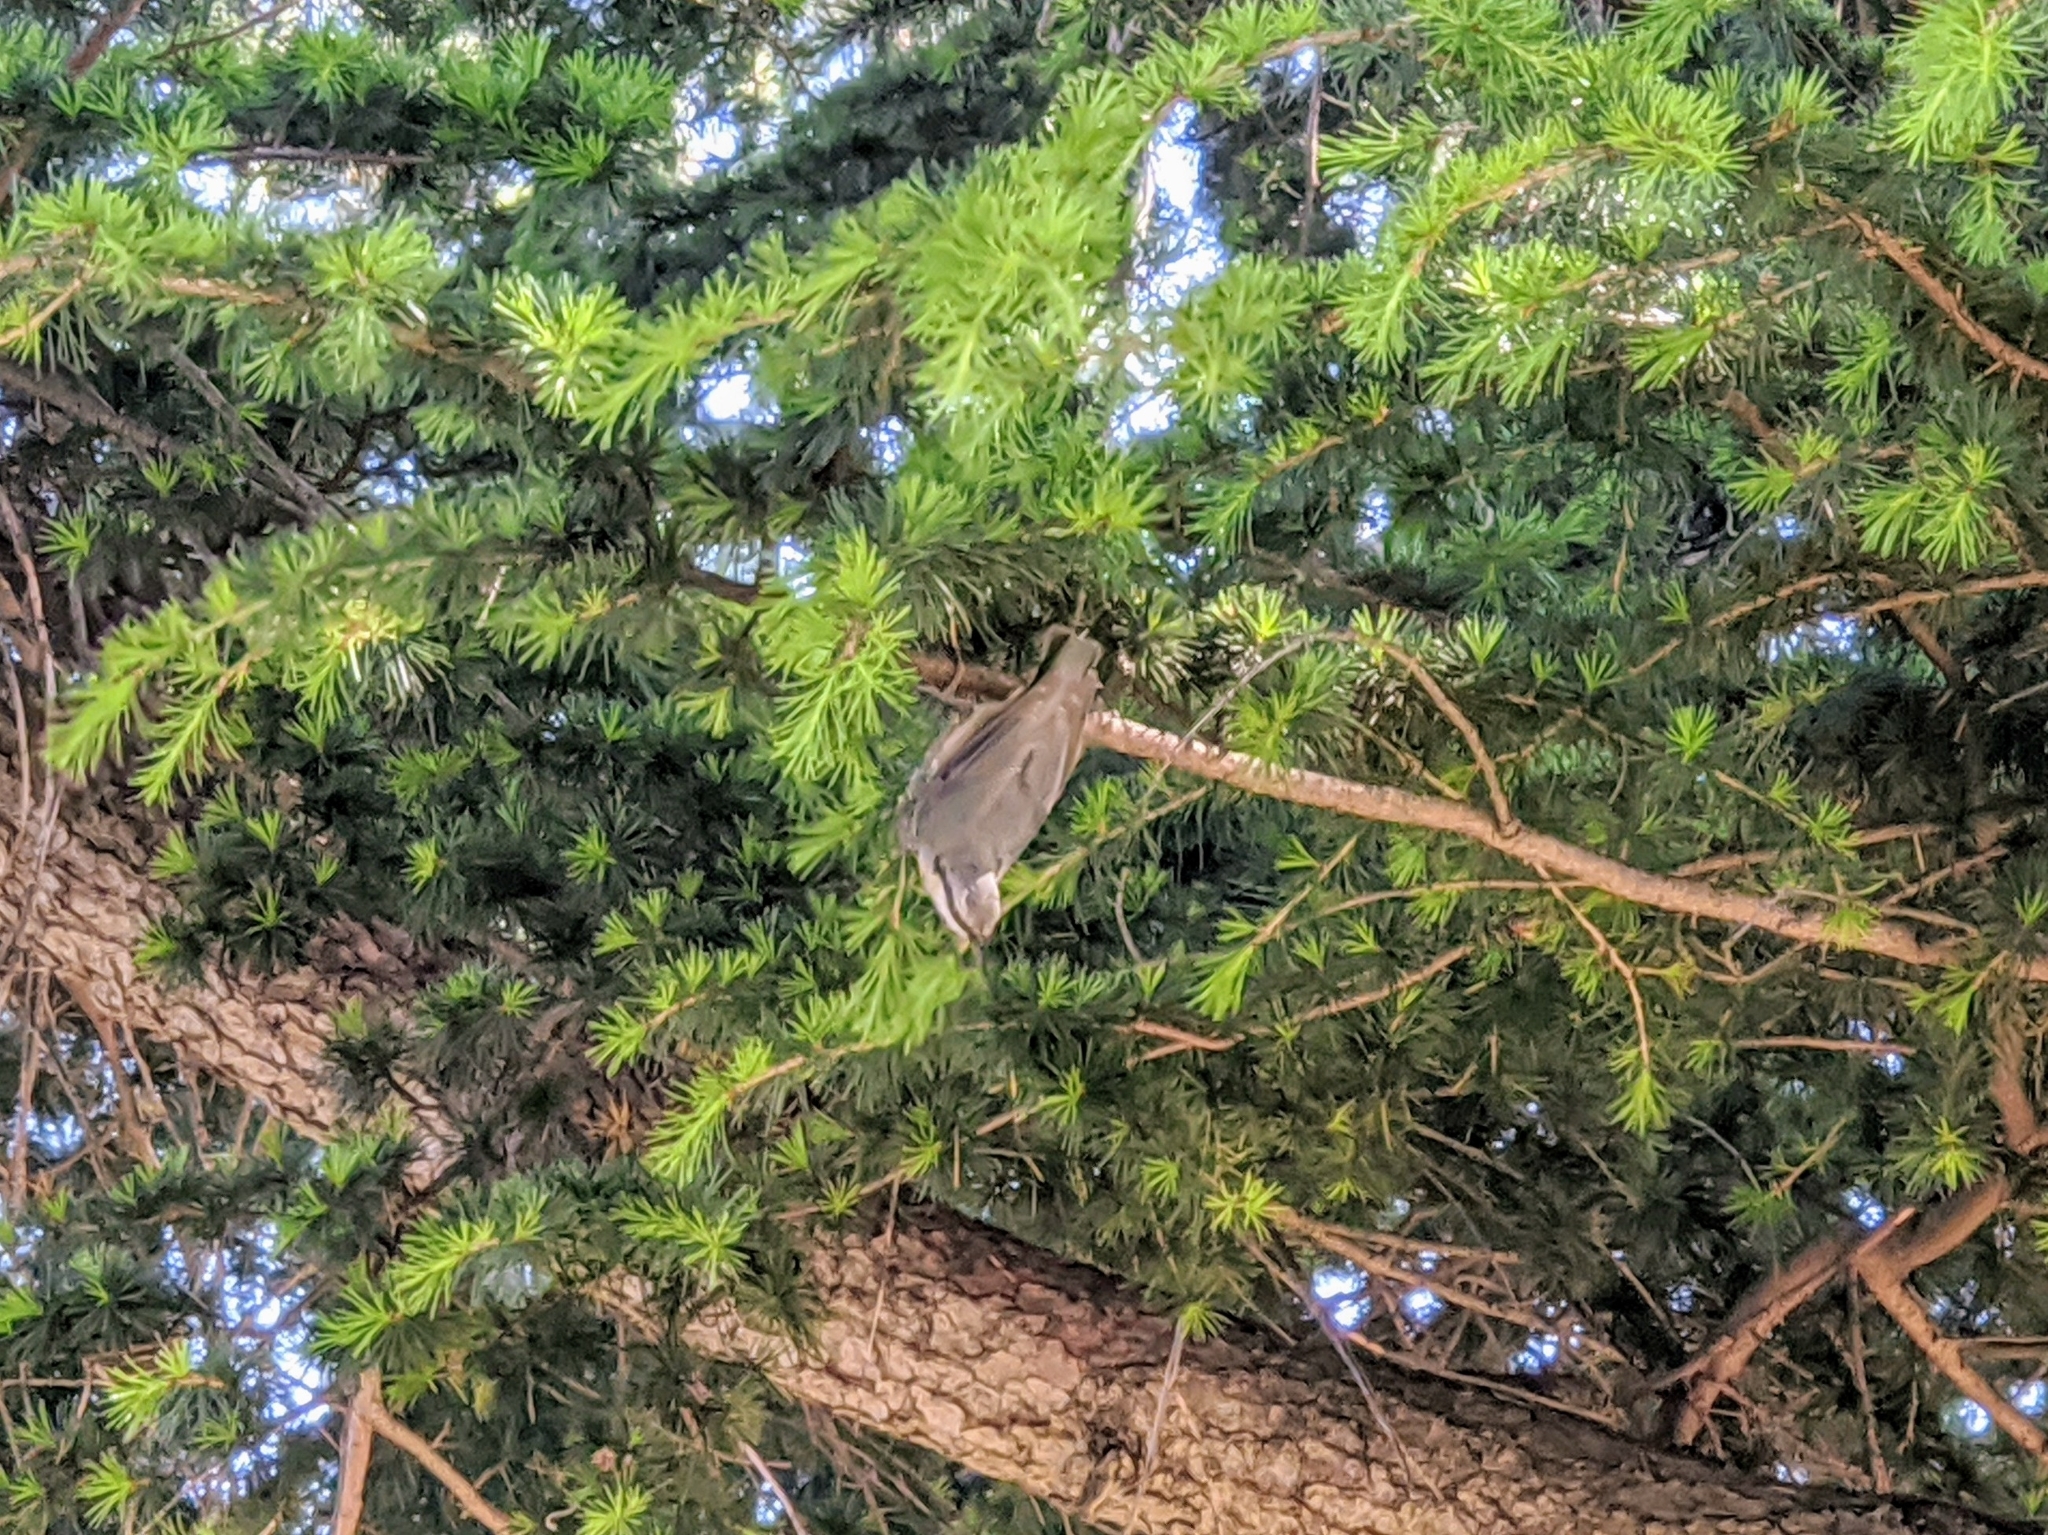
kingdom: Animalia
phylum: Chordata
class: Aves
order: Passeriformes
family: Sittidae
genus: Sitta
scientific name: Sitta europaea
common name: Eurasian nuthatch
